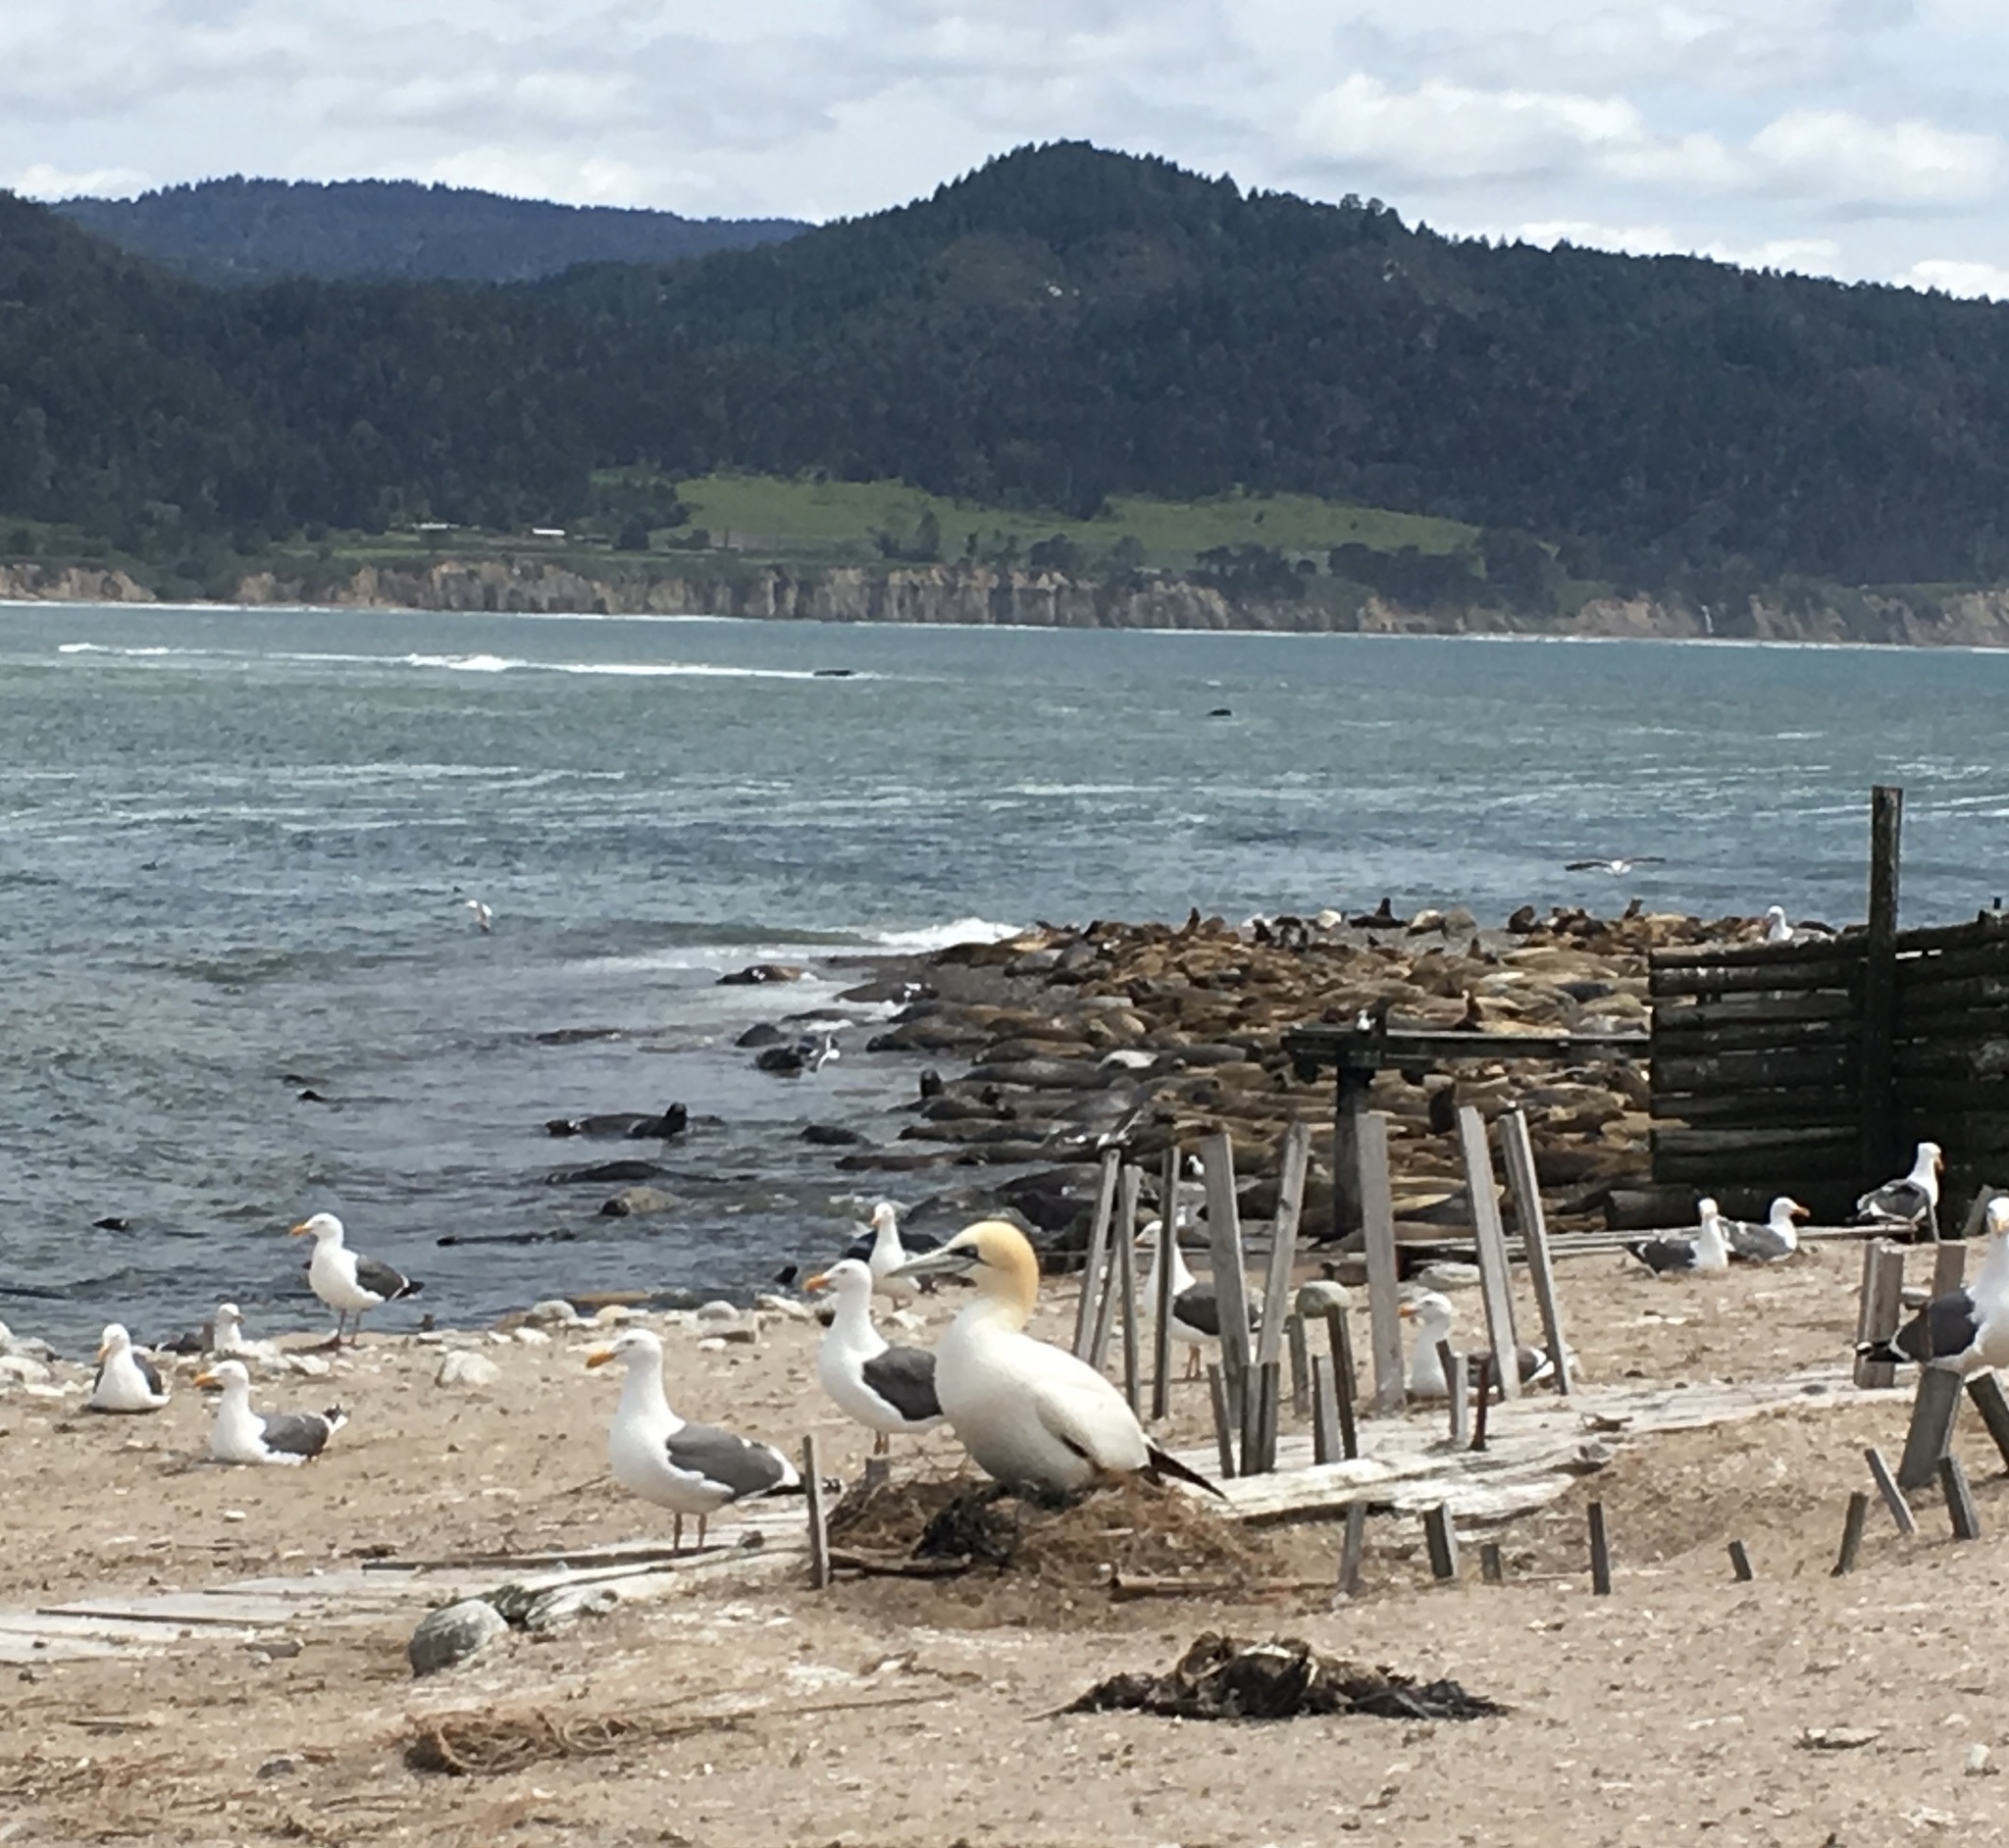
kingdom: Animalia
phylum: Chordata
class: Aves
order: Suliformes
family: Sulidae
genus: Morus
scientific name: Morus bassanus
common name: Northern gannet
